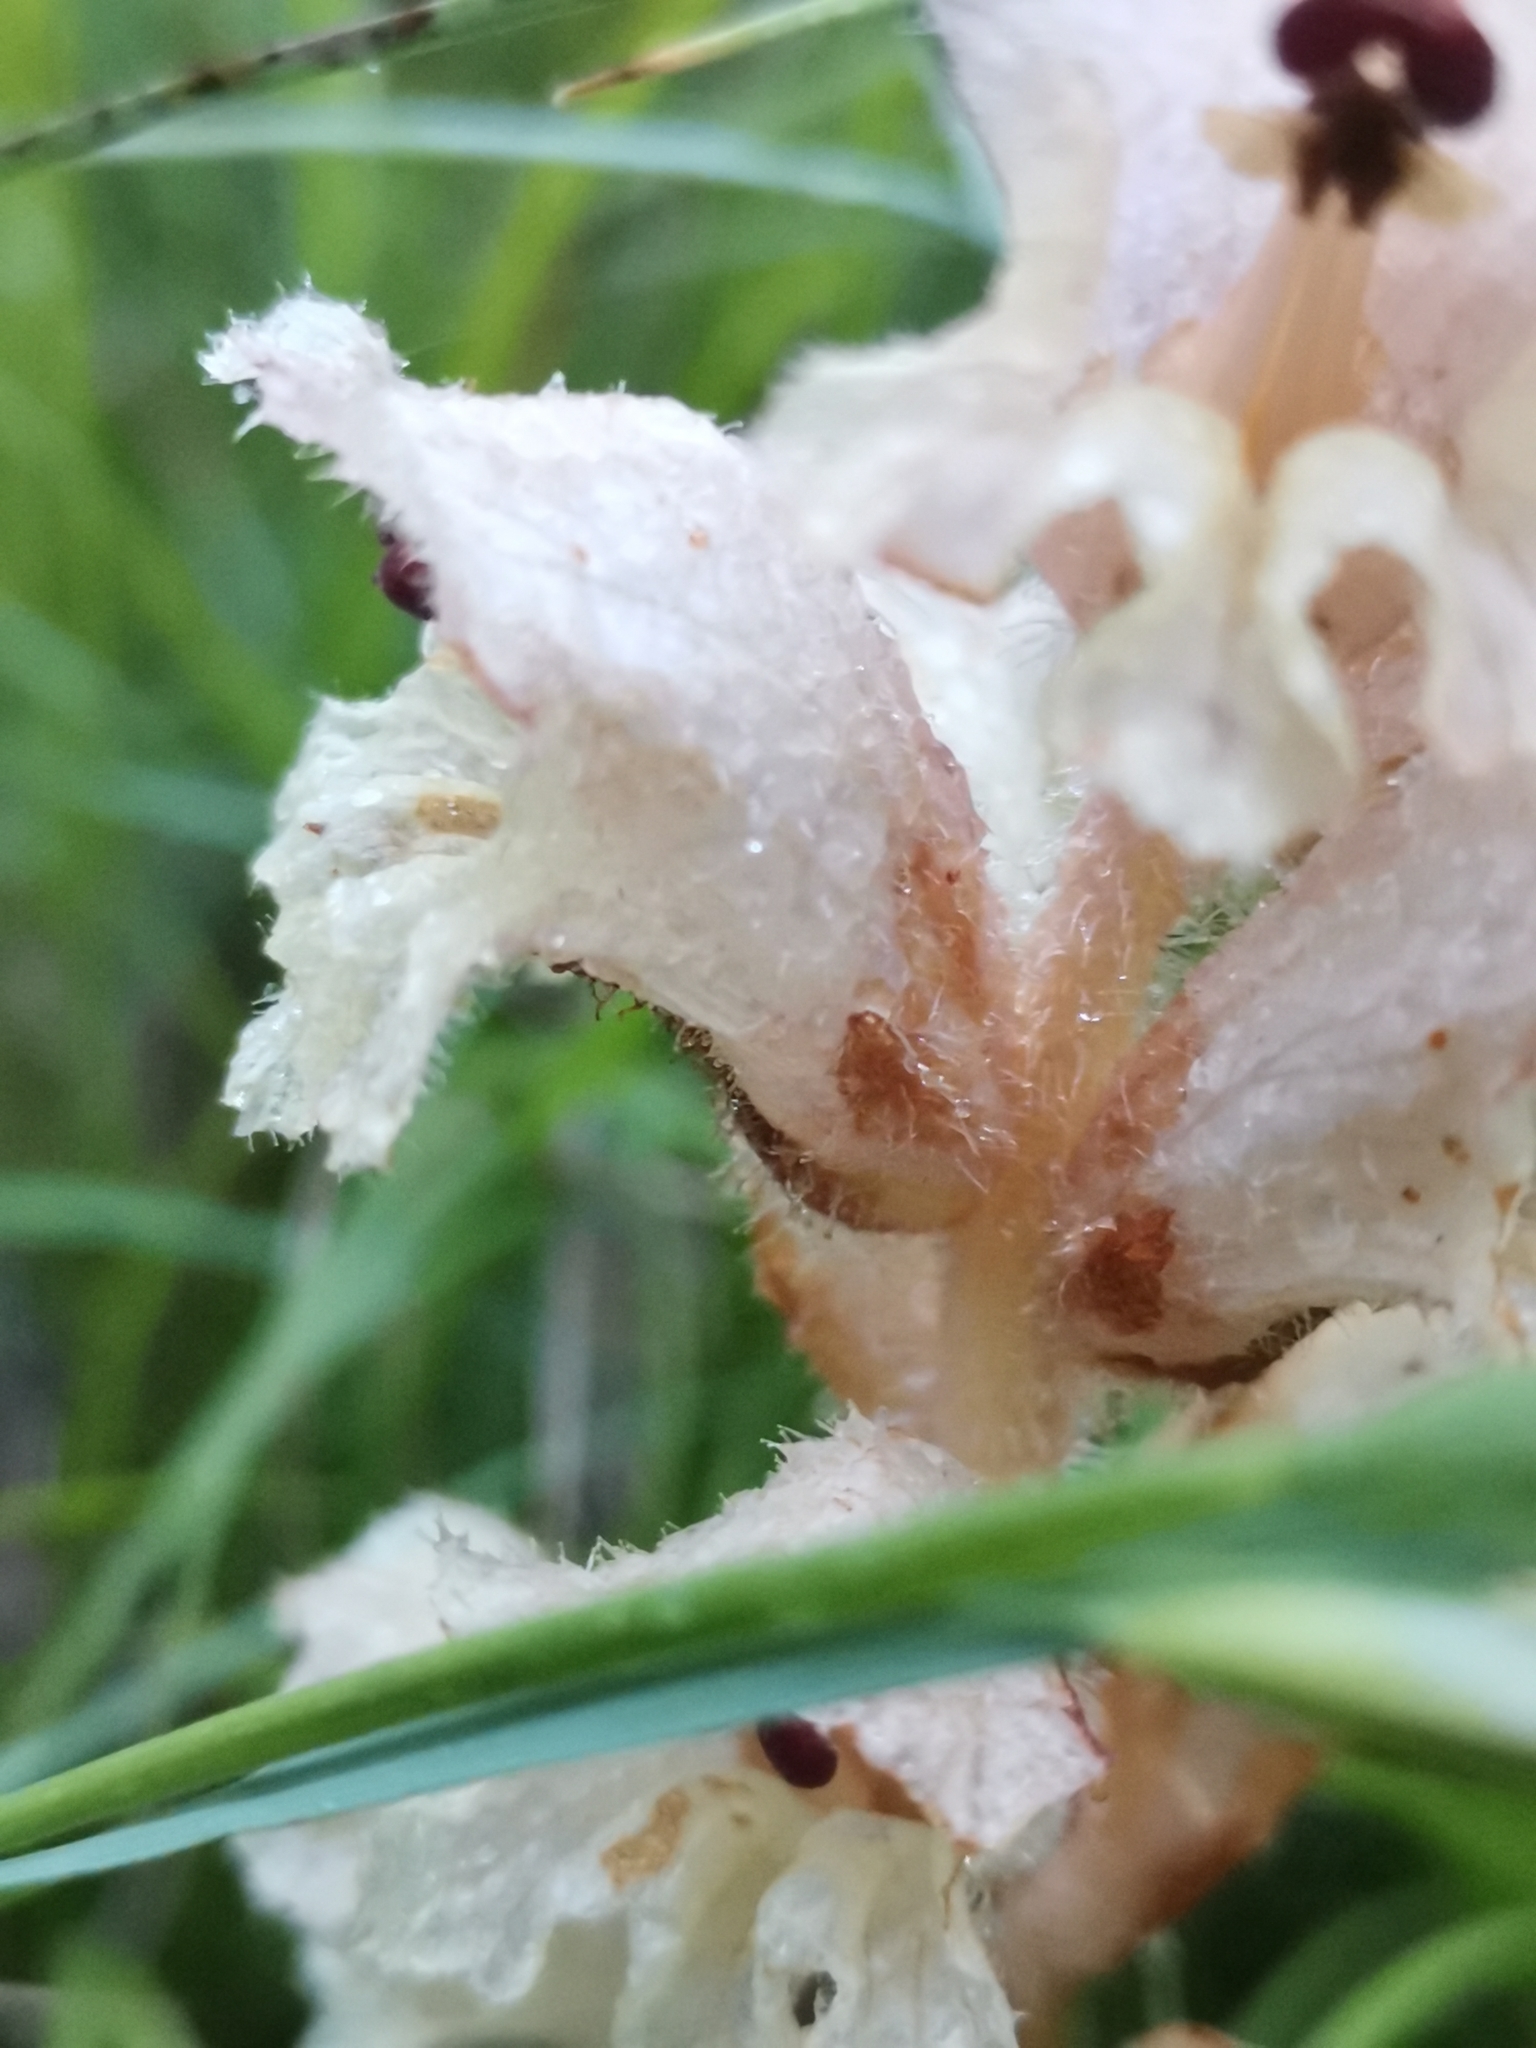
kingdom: Plantae
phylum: Tracheophyta
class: Magnoliopsida
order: Lamiales
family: Orobanchaceae
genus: Orobanche
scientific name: Orobanche caryophyllacea
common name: Bedstraw broomrape
